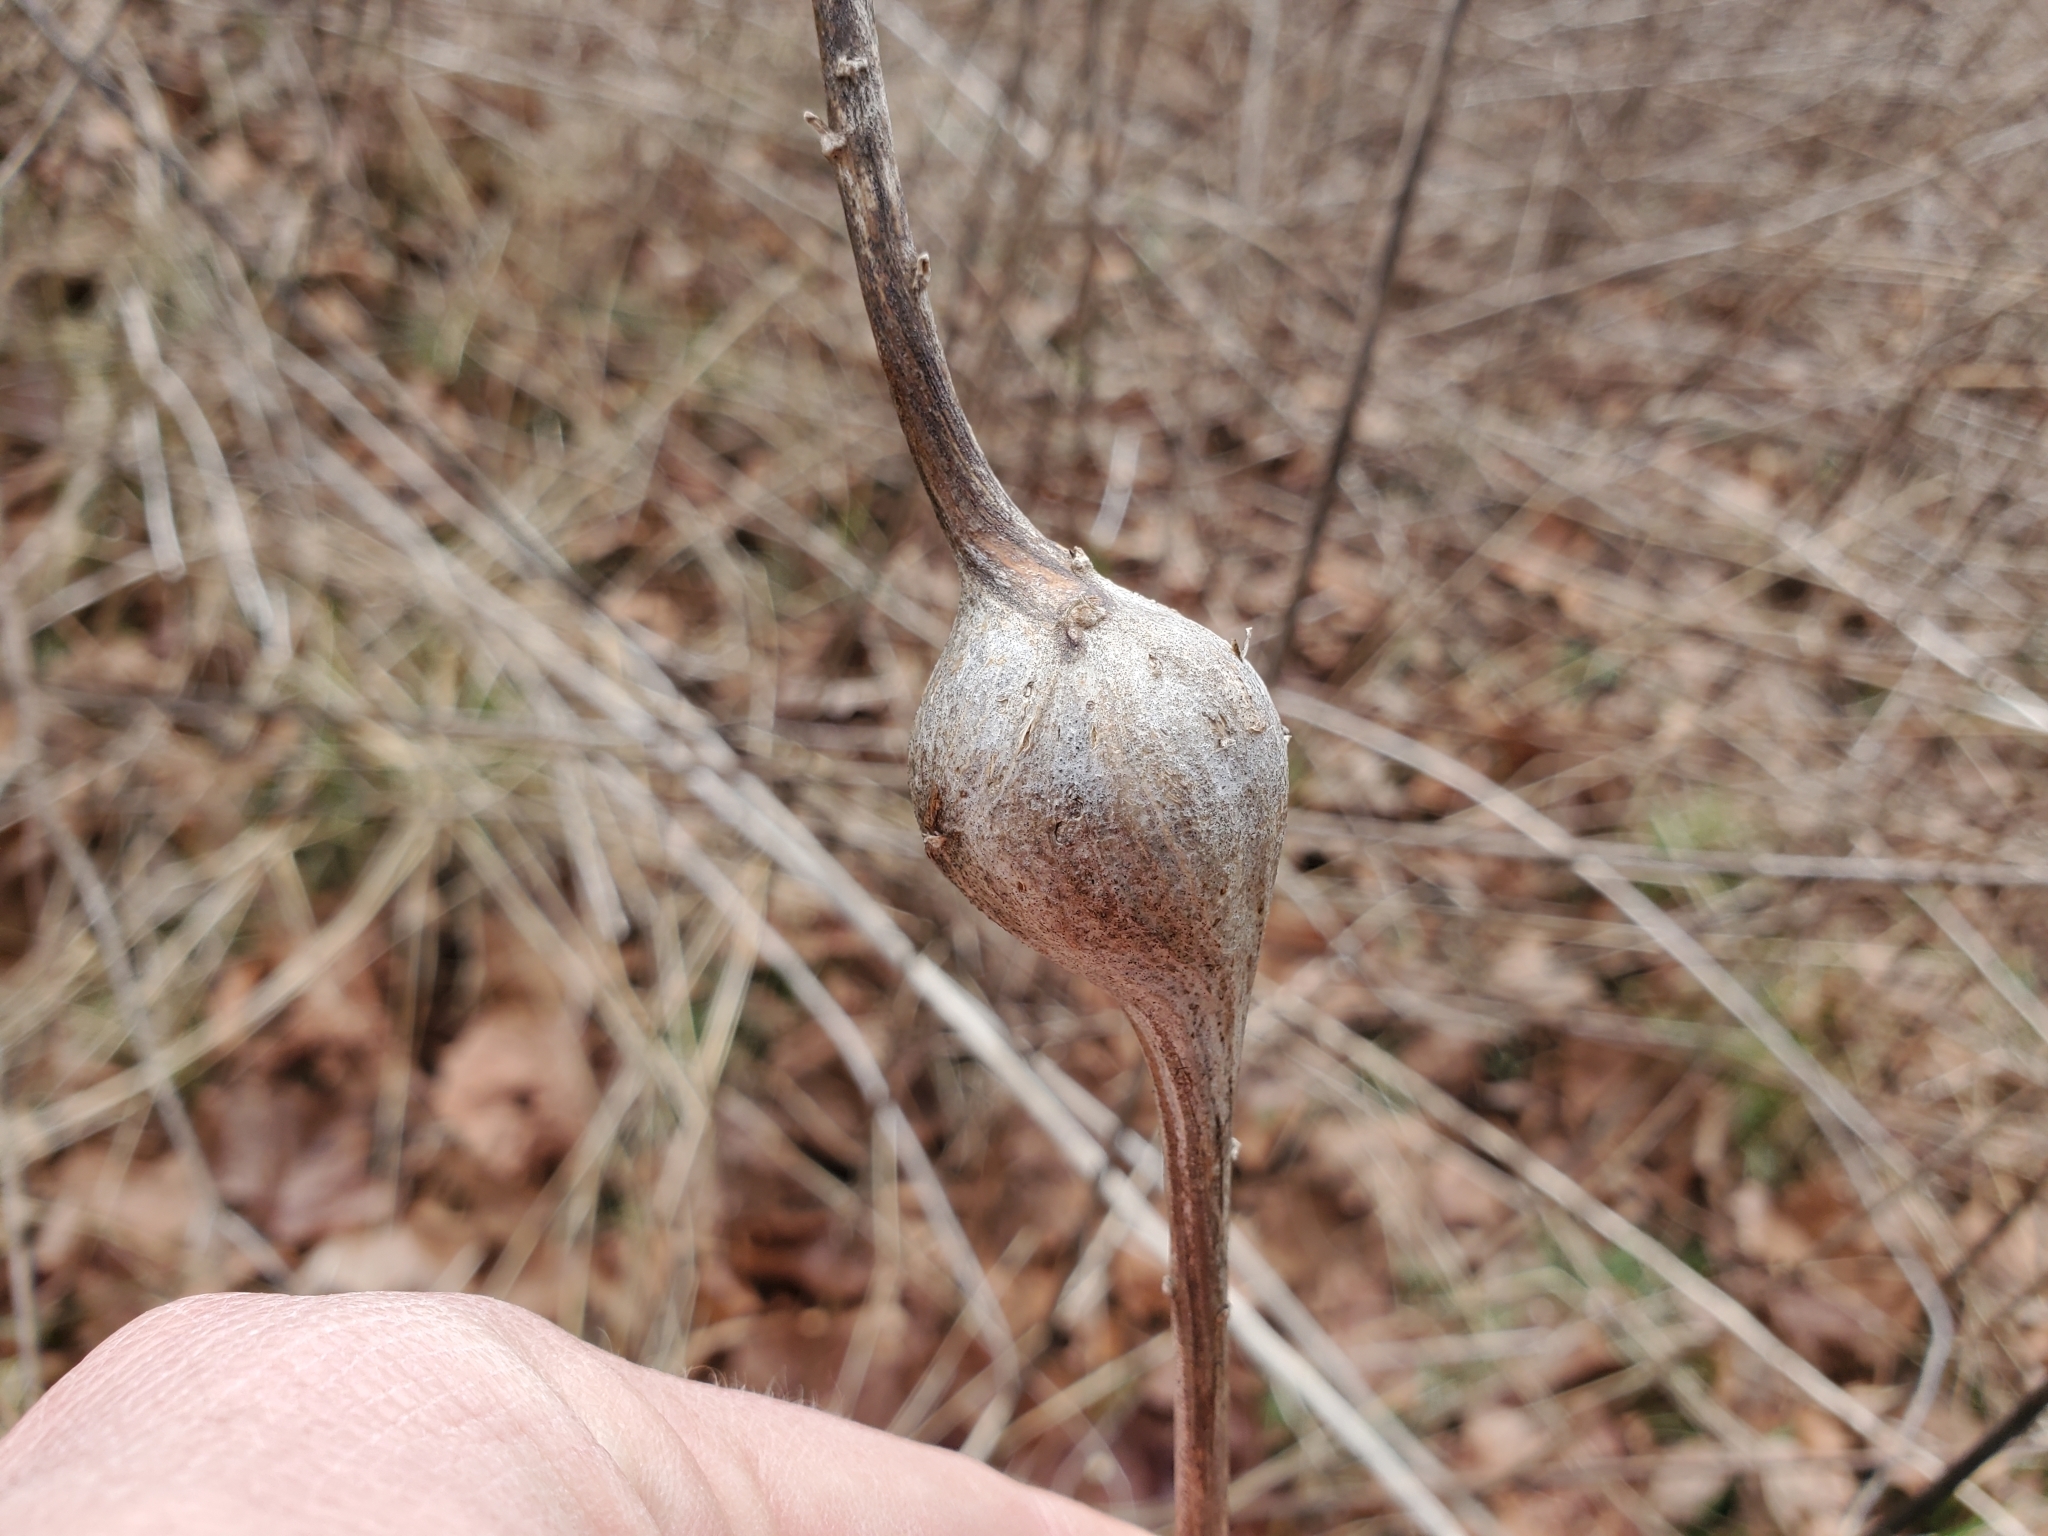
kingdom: Animalia
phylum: Arthropoda
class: Insecta
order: Diptera
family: Tephritidae
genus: Eurosta
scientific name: Eurosta solidaginis
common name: Goldenrod gall fly
